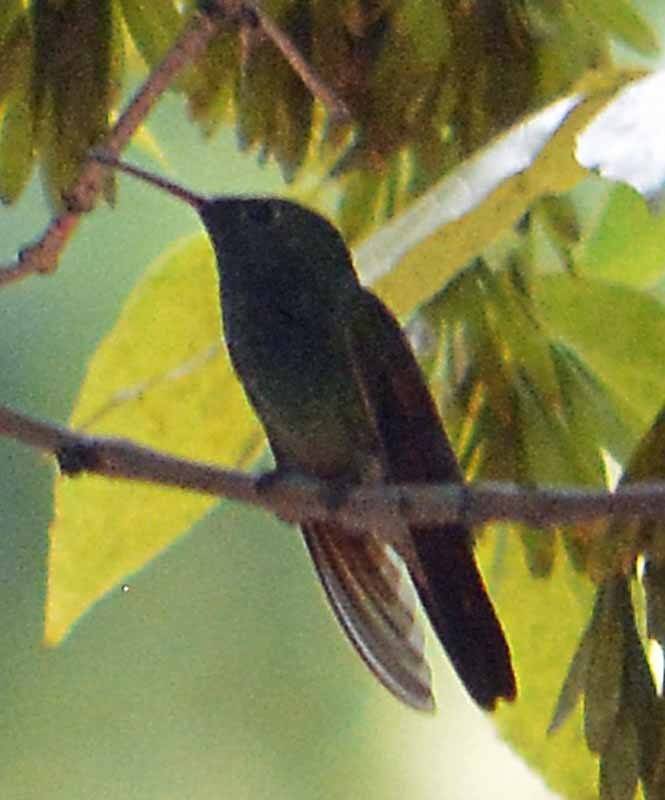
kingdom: Animalia
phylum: Chordata
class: Aves
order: Apodiformes
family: Trochilidae
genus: Saucerottia
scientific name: Saucerottia beryllina
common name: Berylline hummingbird
